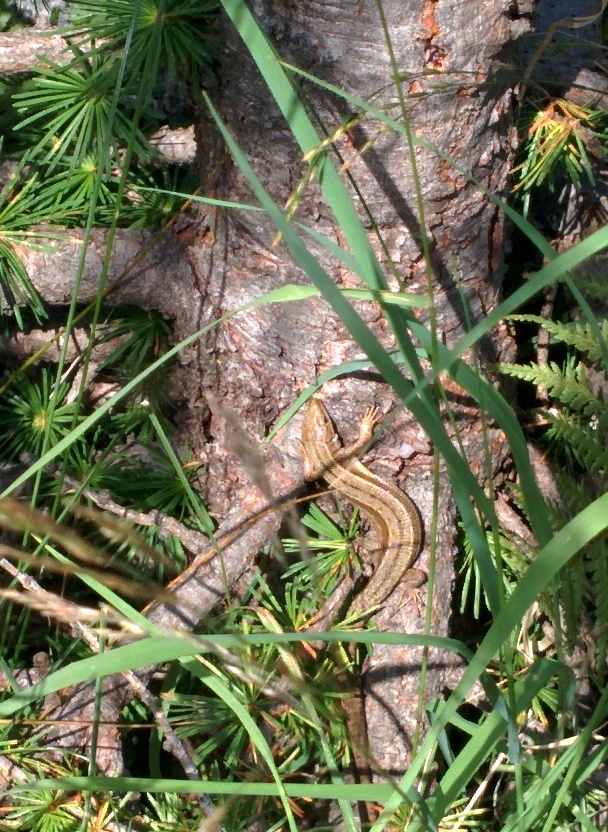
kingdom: Animalia
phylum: Chordata
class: Squamata
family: Lacertidae
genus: Zootoca
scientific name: Zootoca vivipara
